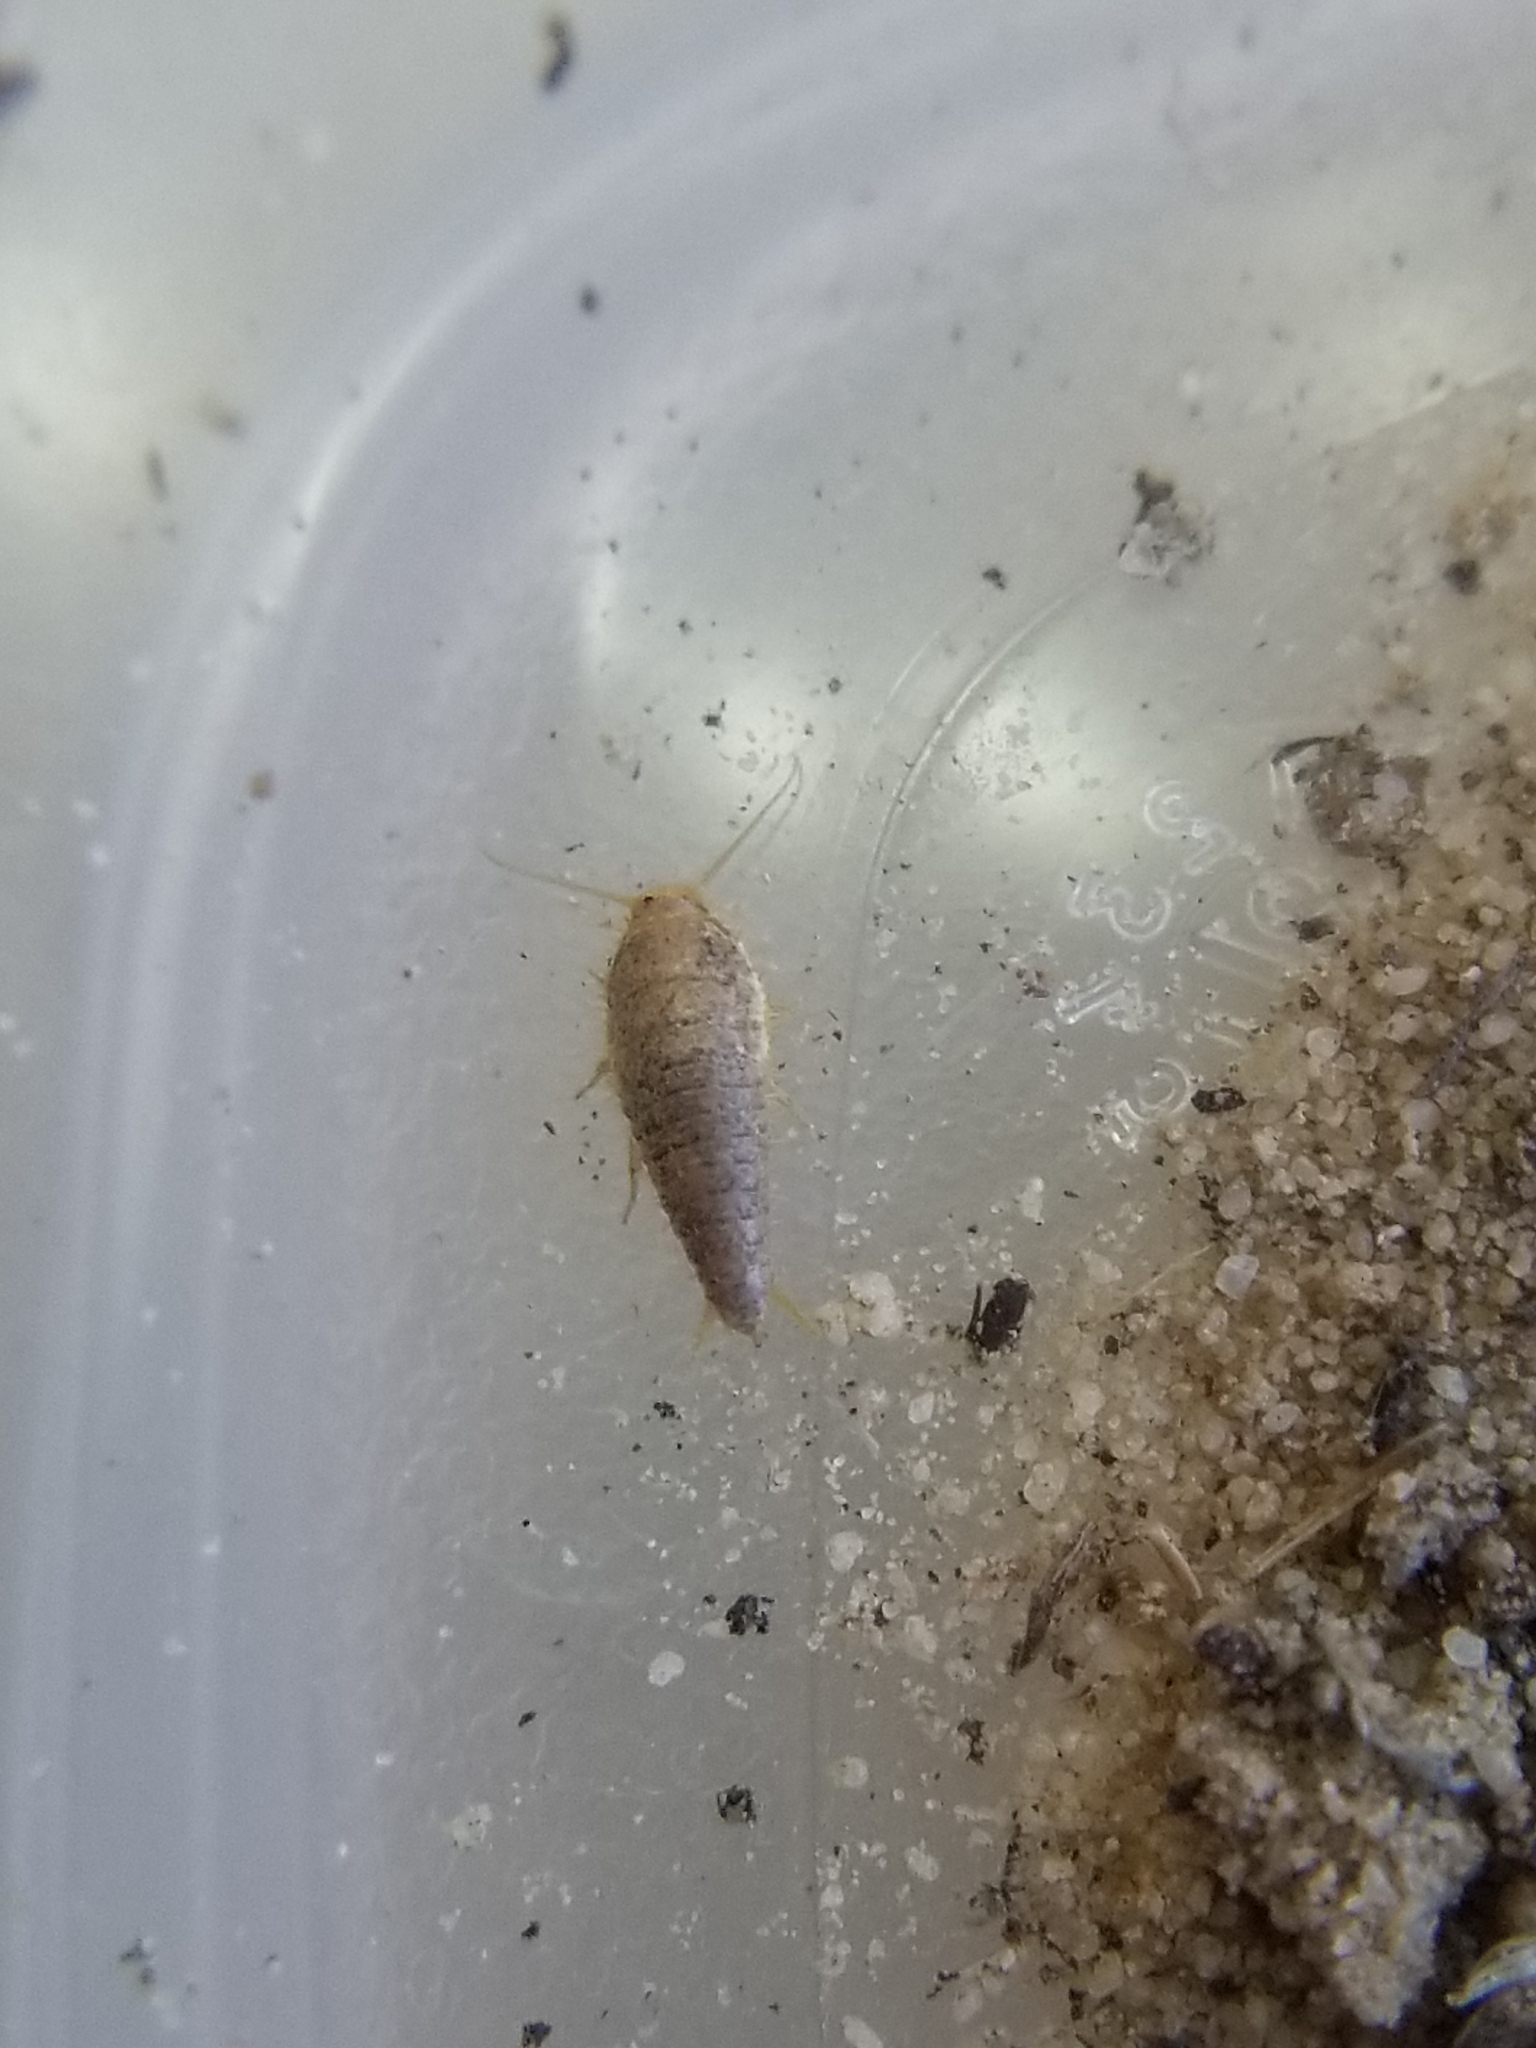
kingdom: Animalia
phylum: Arthropoda
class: Insecta
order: Zygentoma
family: Lepismatidae
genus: Mirolepisma
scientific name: Mirolepisma deserticola
